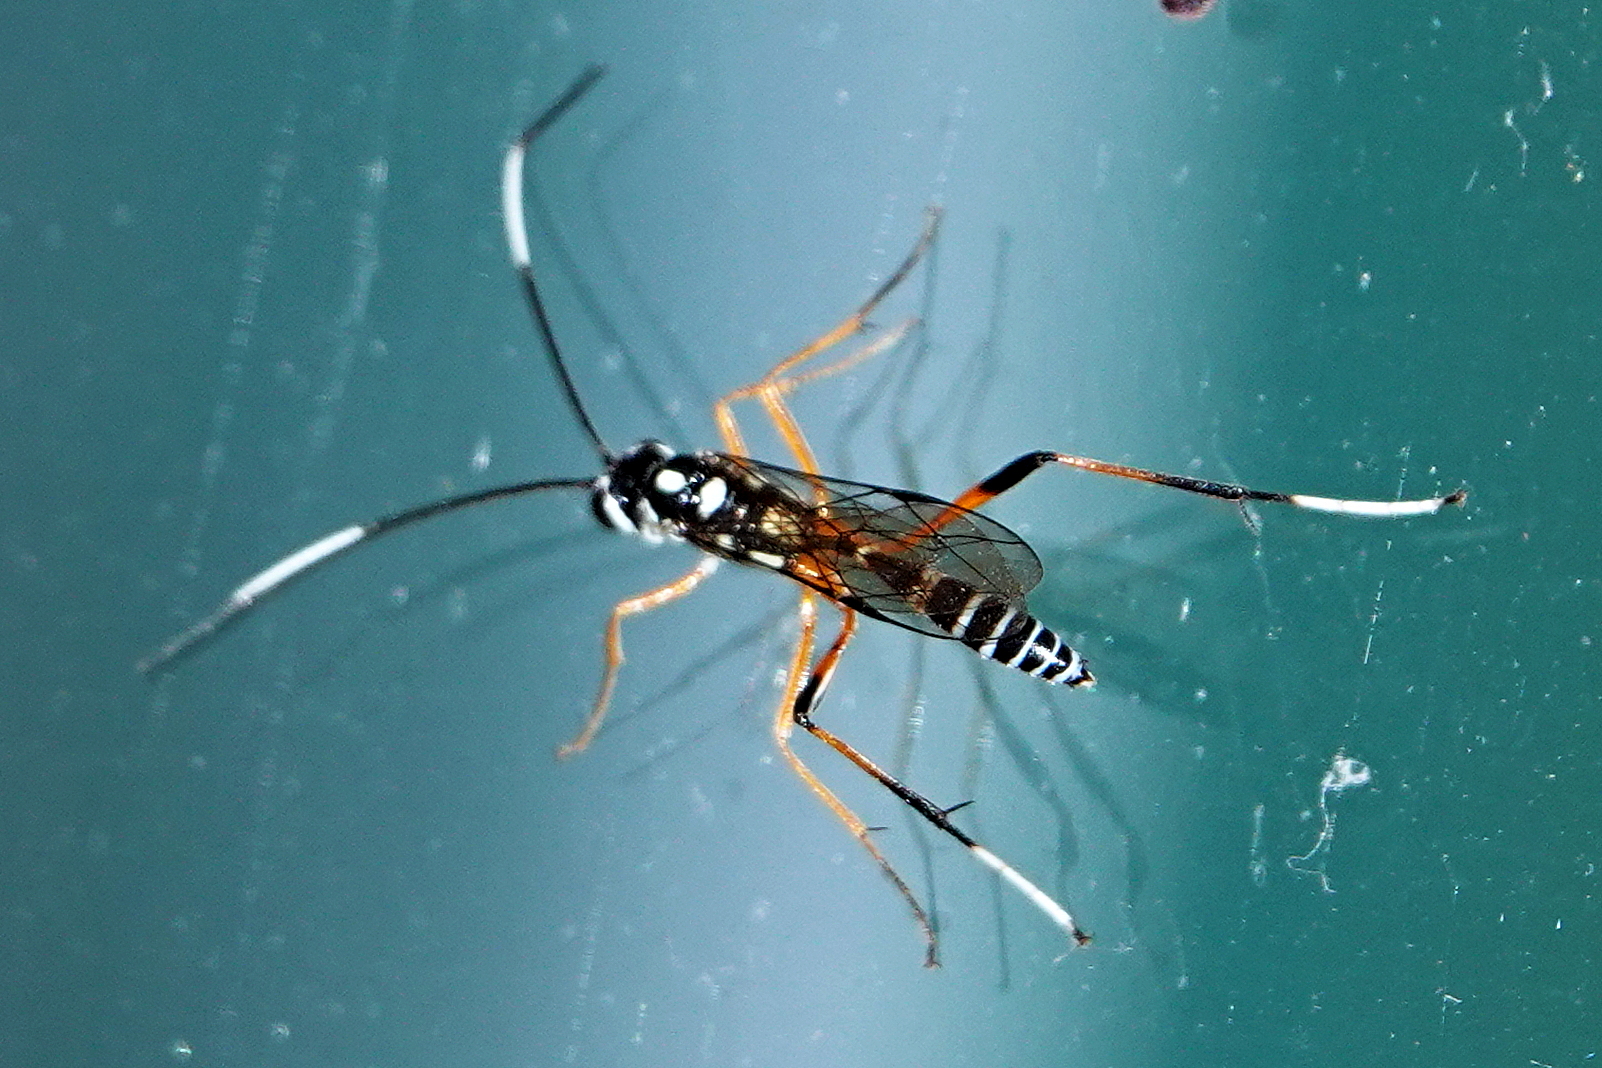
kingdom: Animalia
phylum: Arthropoda
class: Insecta
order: Hymenoptera
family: Ichneumonidae
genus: Stenarella
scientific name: Stenarella victoriae
